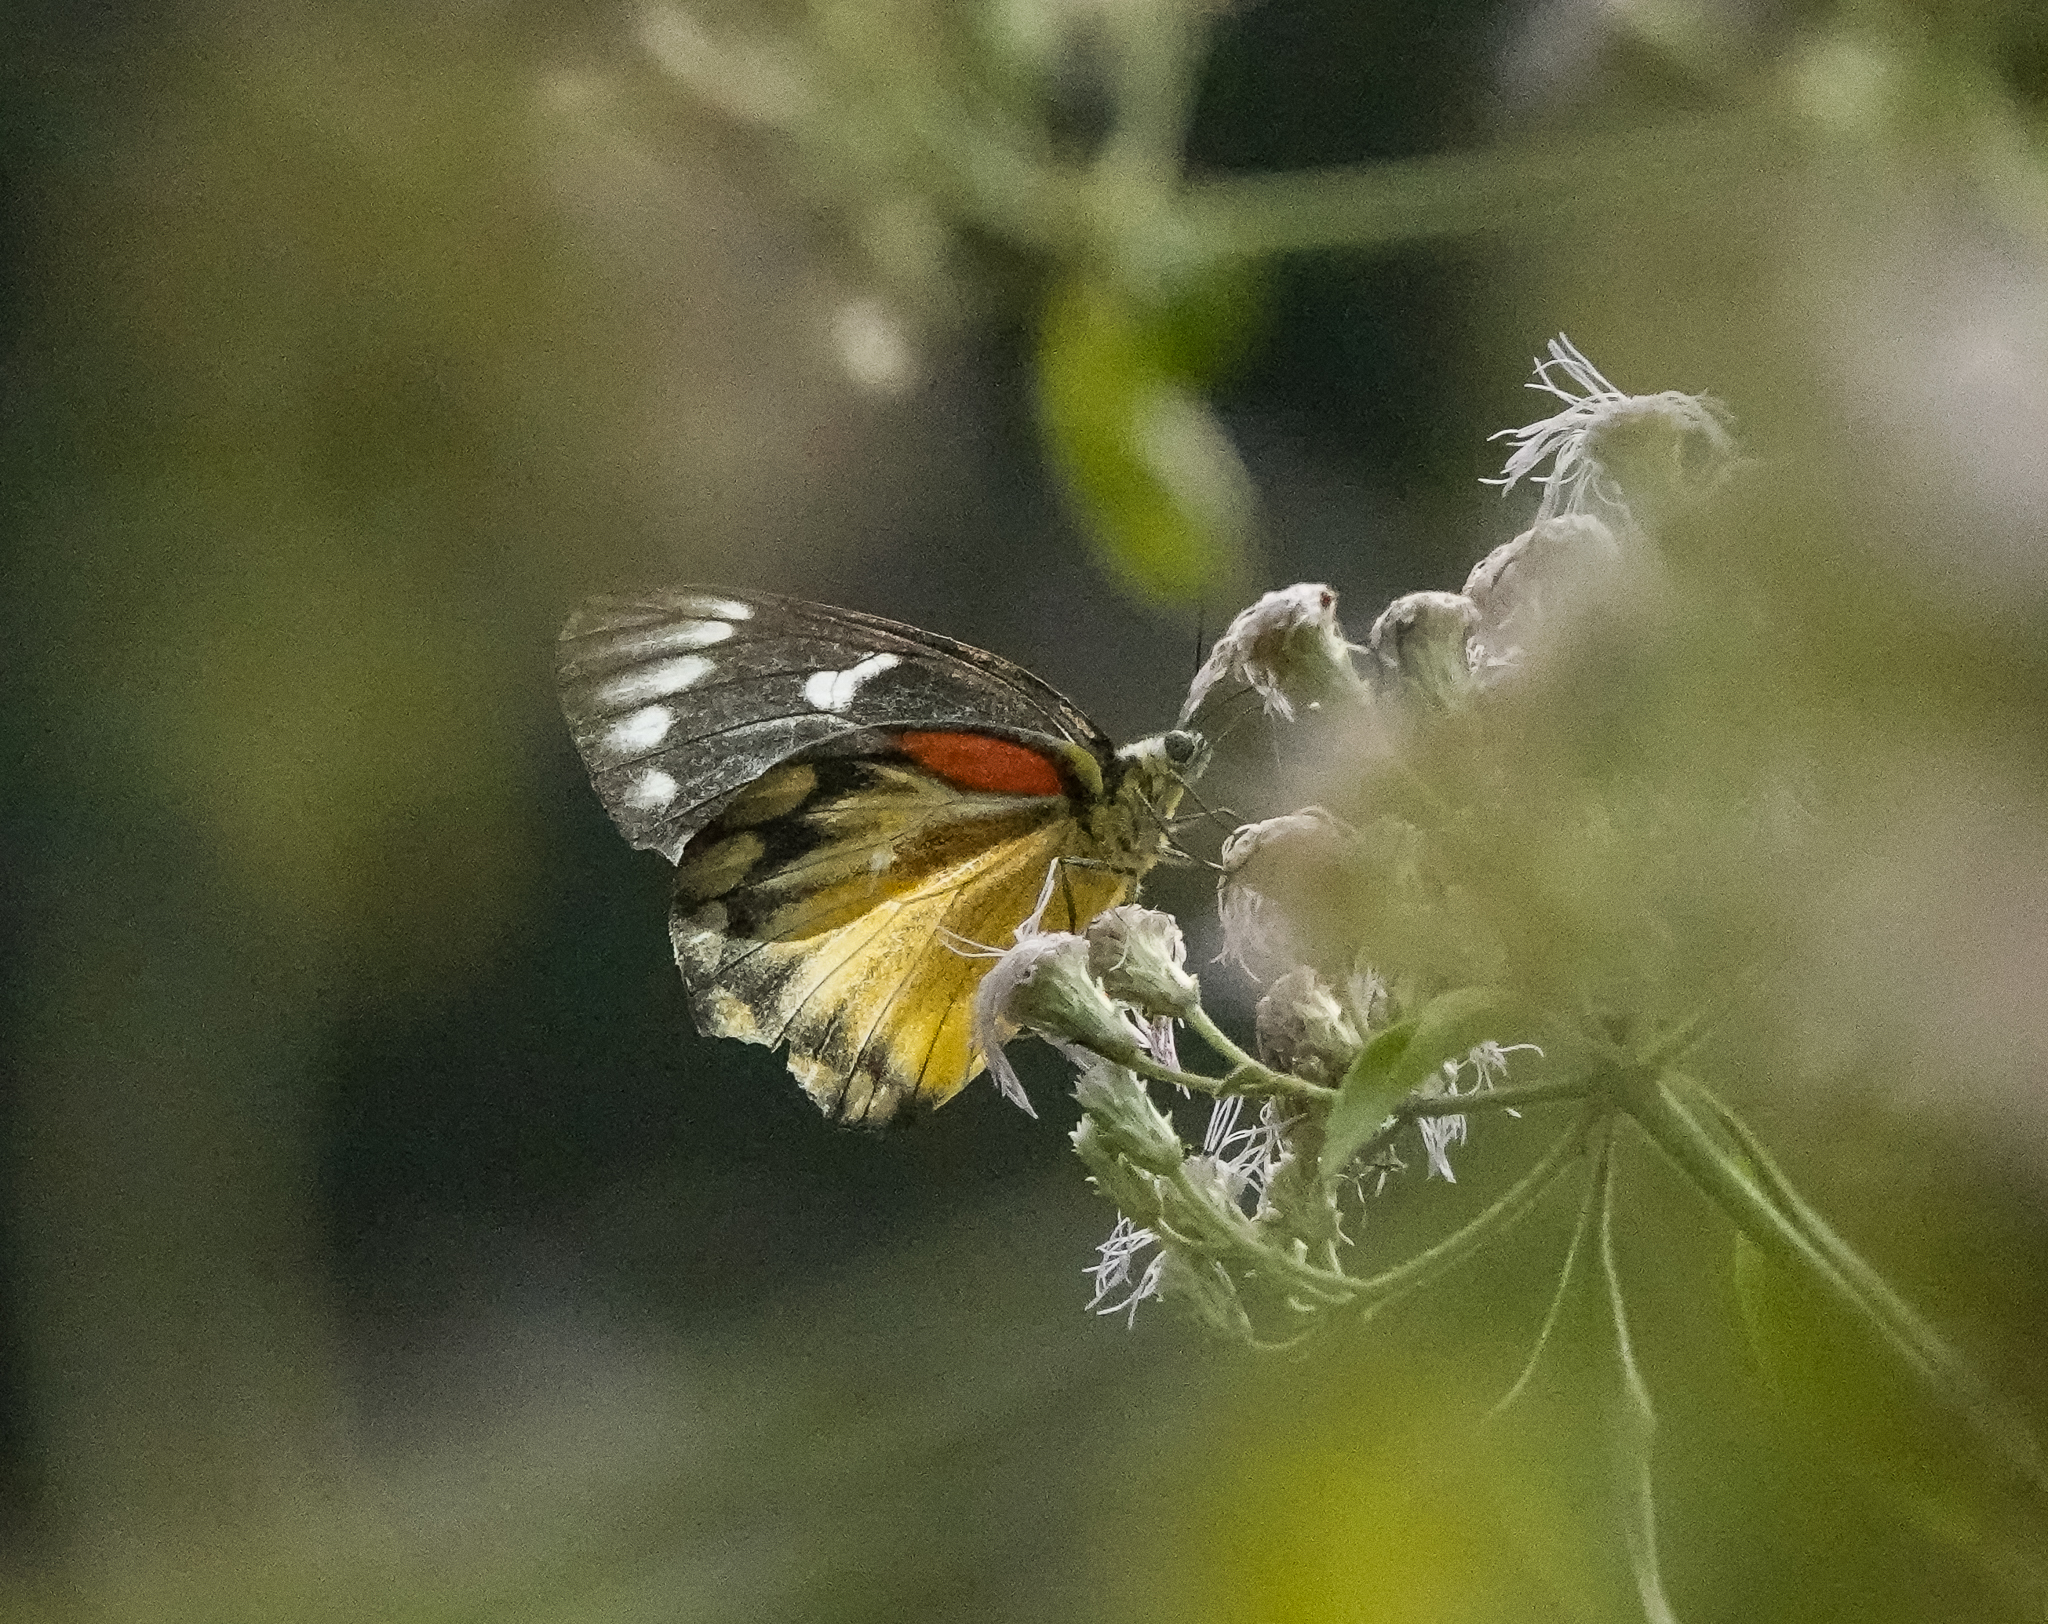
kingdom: Animalia
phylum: Arthropoda
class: Insecta
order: Lepidoptera
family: Pieridae
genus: Delias
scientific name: Delias descombesi
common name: Red-spot jezebel
